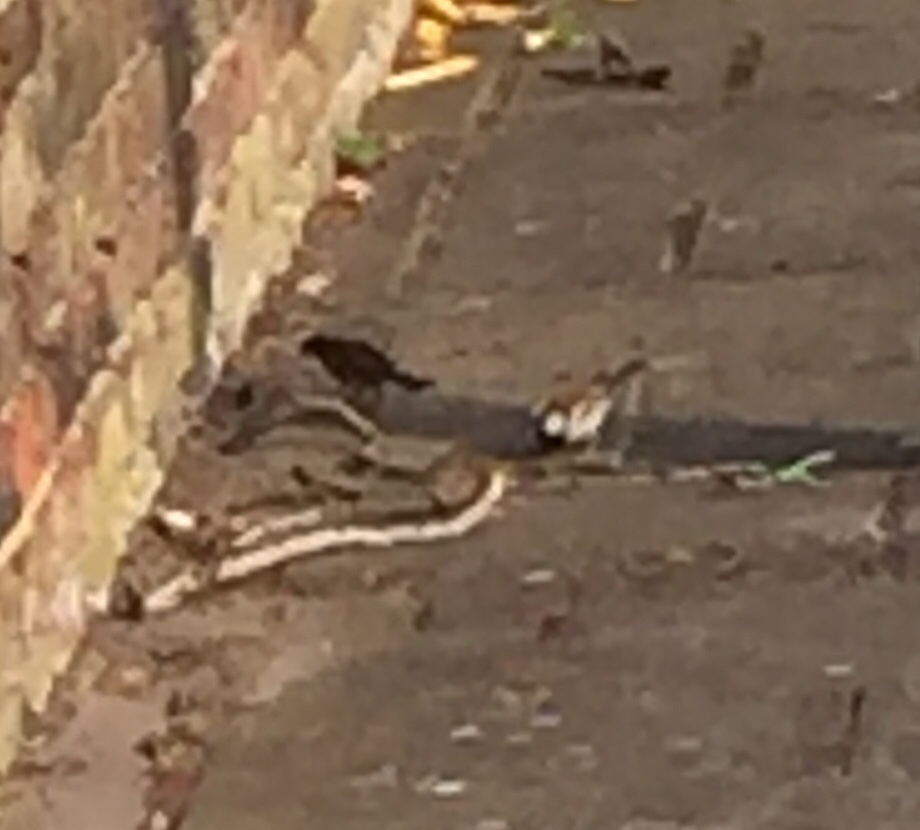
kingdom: Animalia
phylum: Chordata
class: Aves
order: Passeriformes
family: Passeridae
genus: Passer
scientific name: Passer domesticus
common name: House sparrow
